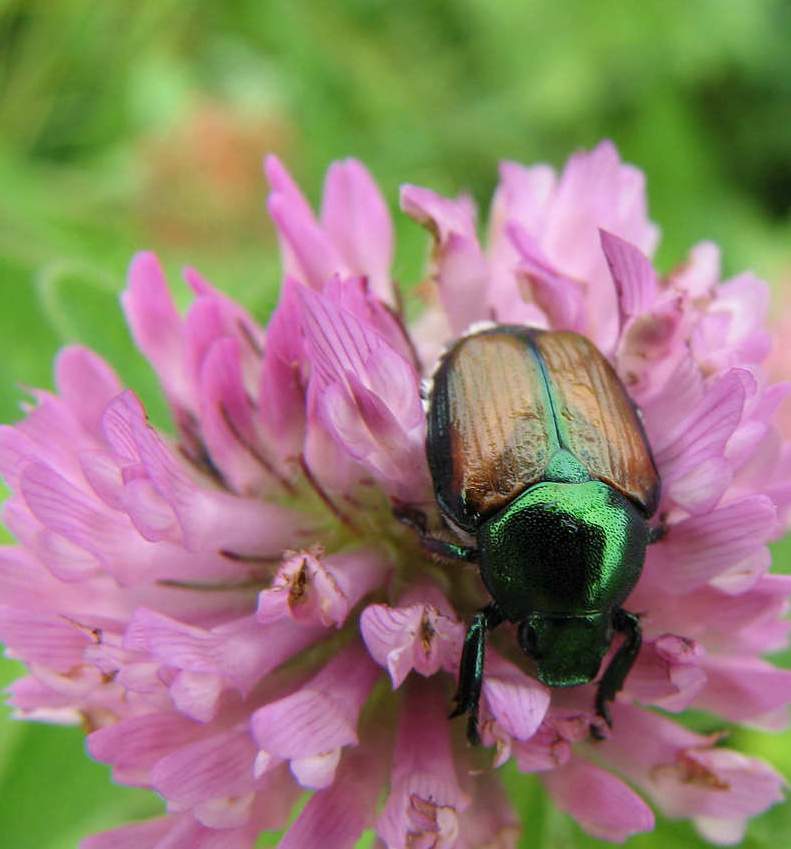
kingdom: Animalia
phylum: Arthropoda
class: Insecta
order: Coleoptera
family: Scarabaeidae
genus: Popillia
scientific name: Popillia japonica
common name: Japanese beetle
